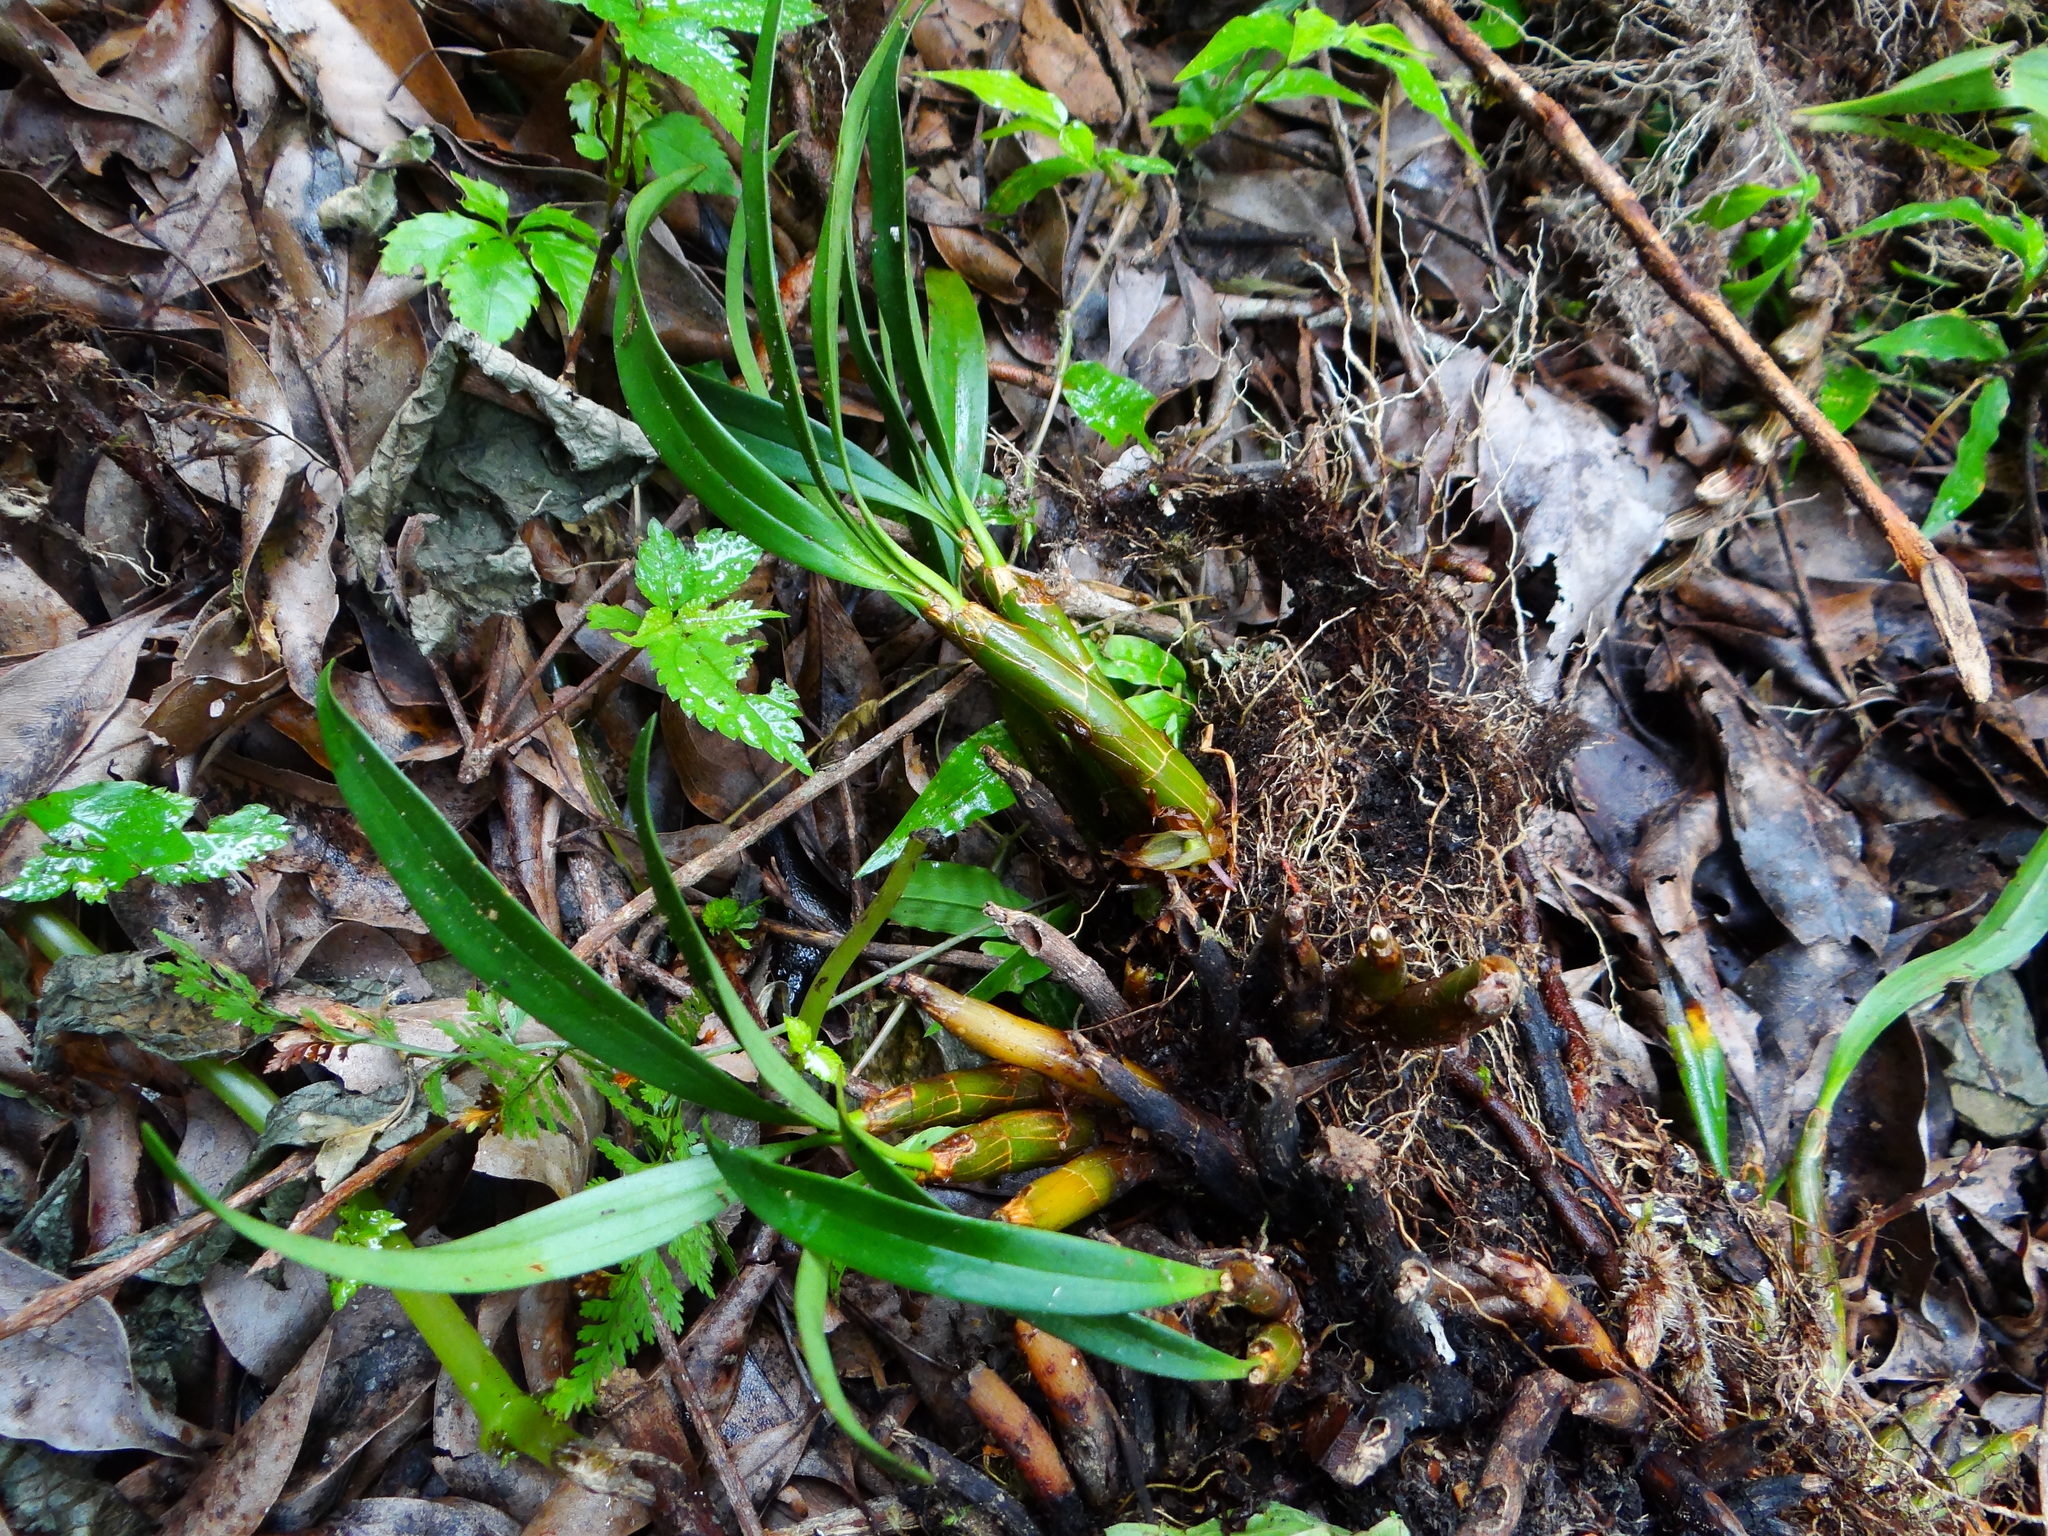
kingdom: Plantae
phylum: Tracheophyta
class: Liliopsida
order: Asparagales
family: Orchidaceae
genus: Pinalia
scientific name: Pinalia amica
